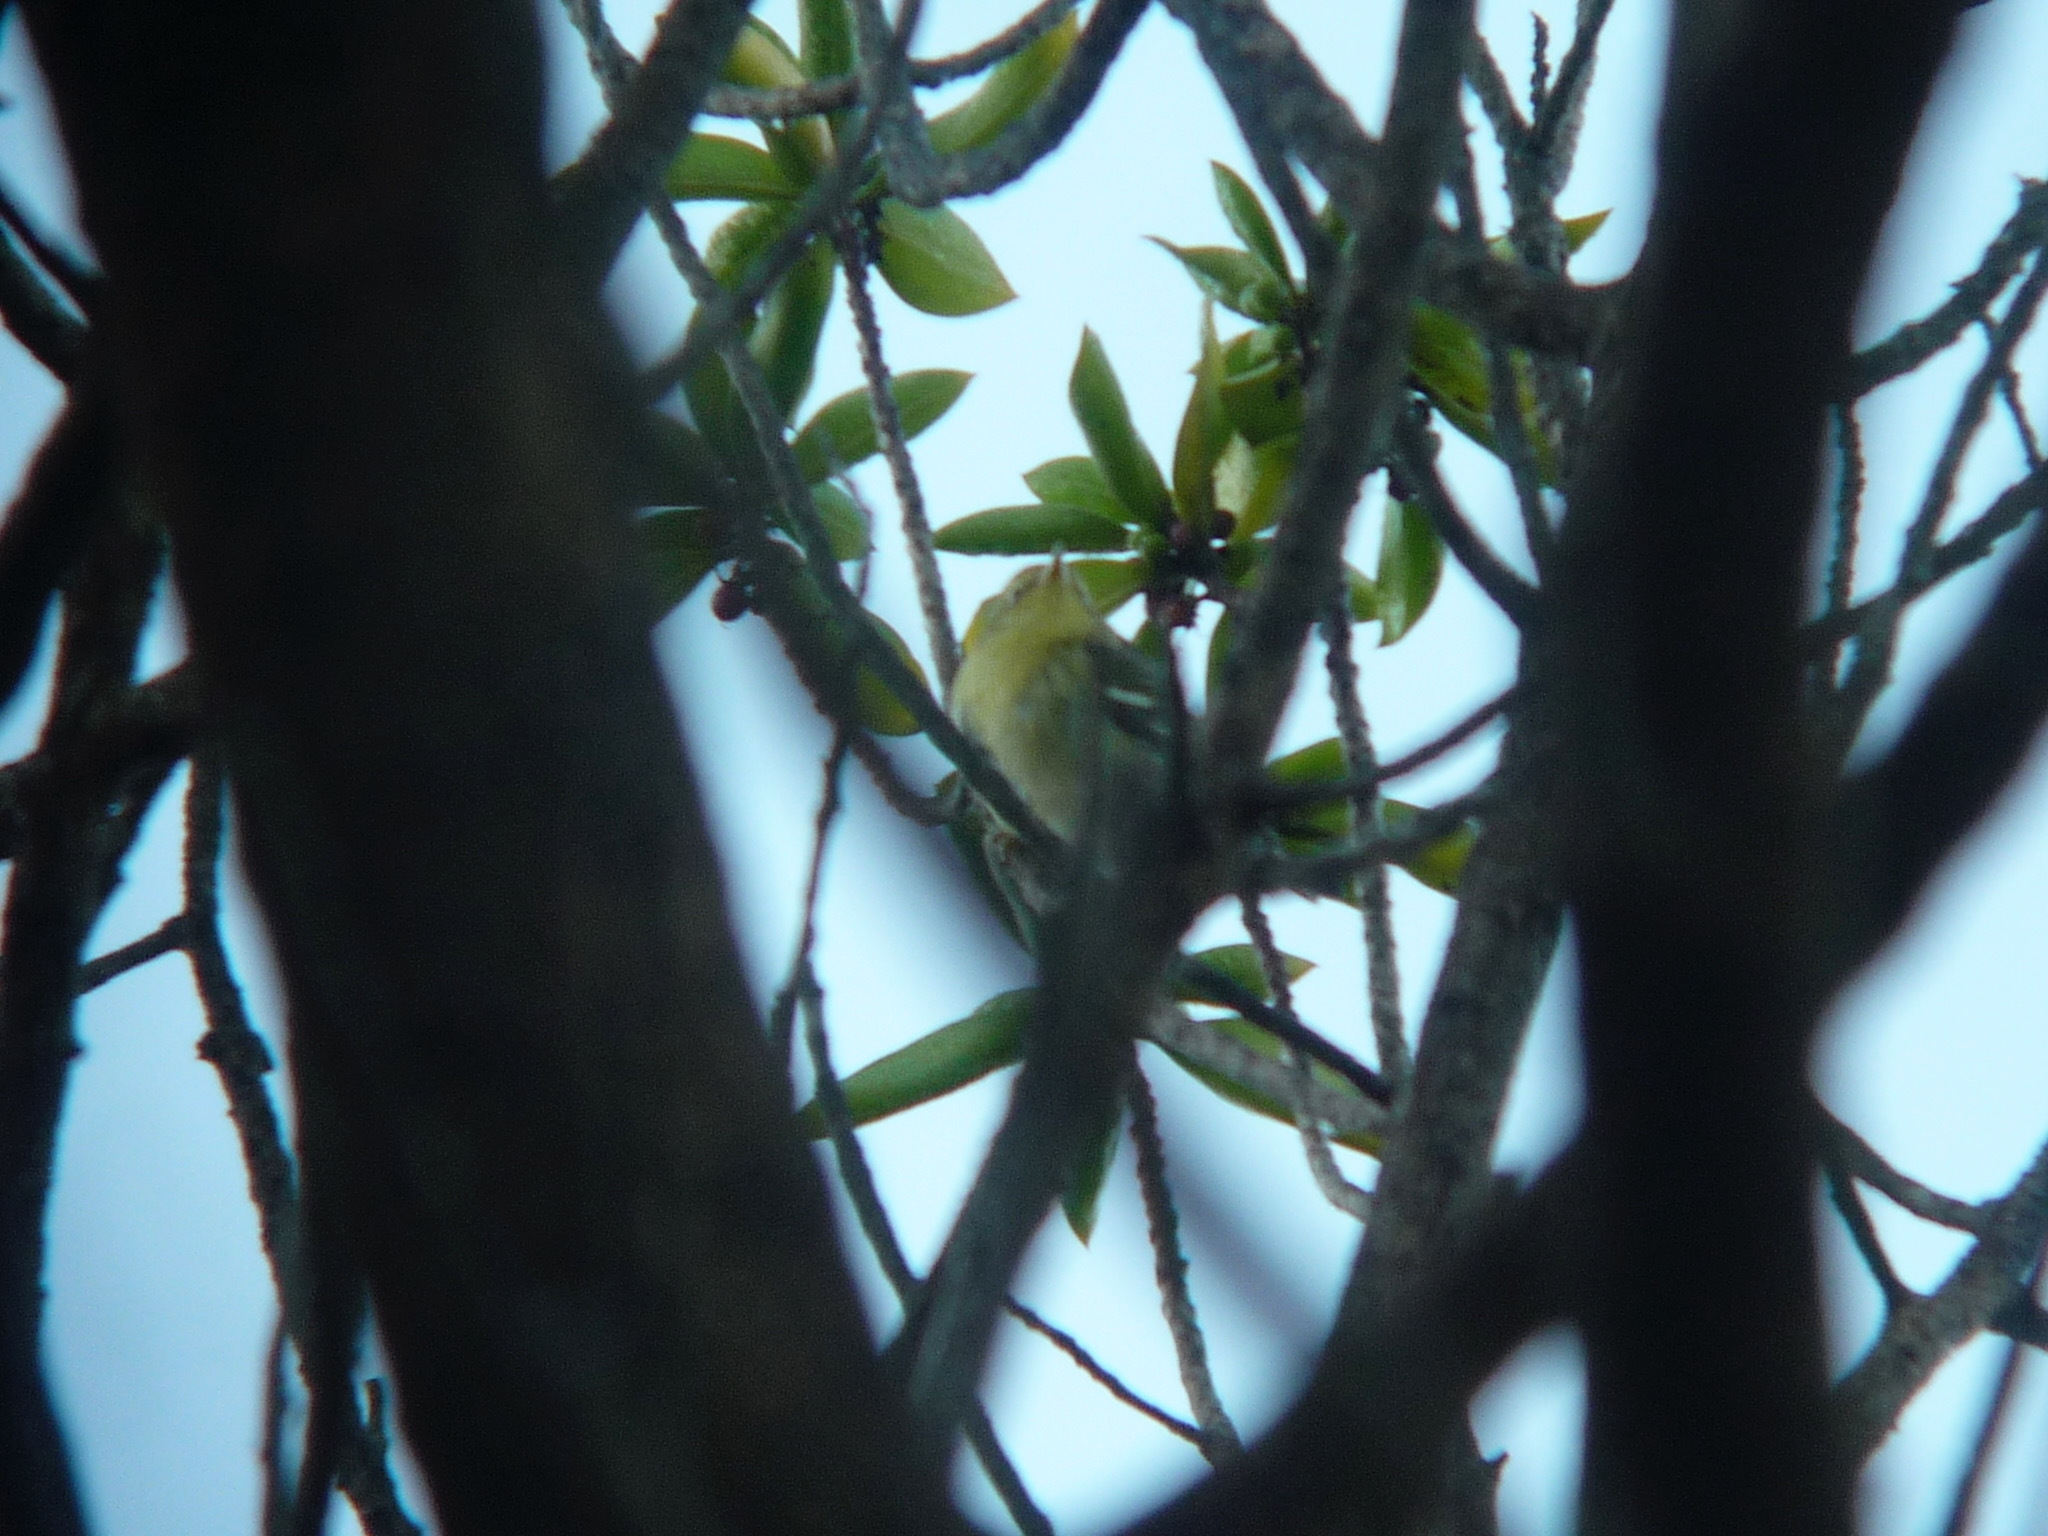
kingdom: Animalia
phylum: Chordata
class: Aves
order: Passeriformes
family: Parulidae
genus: Setophaga
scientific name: Setophaga striata
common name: Blackpoll warbler
